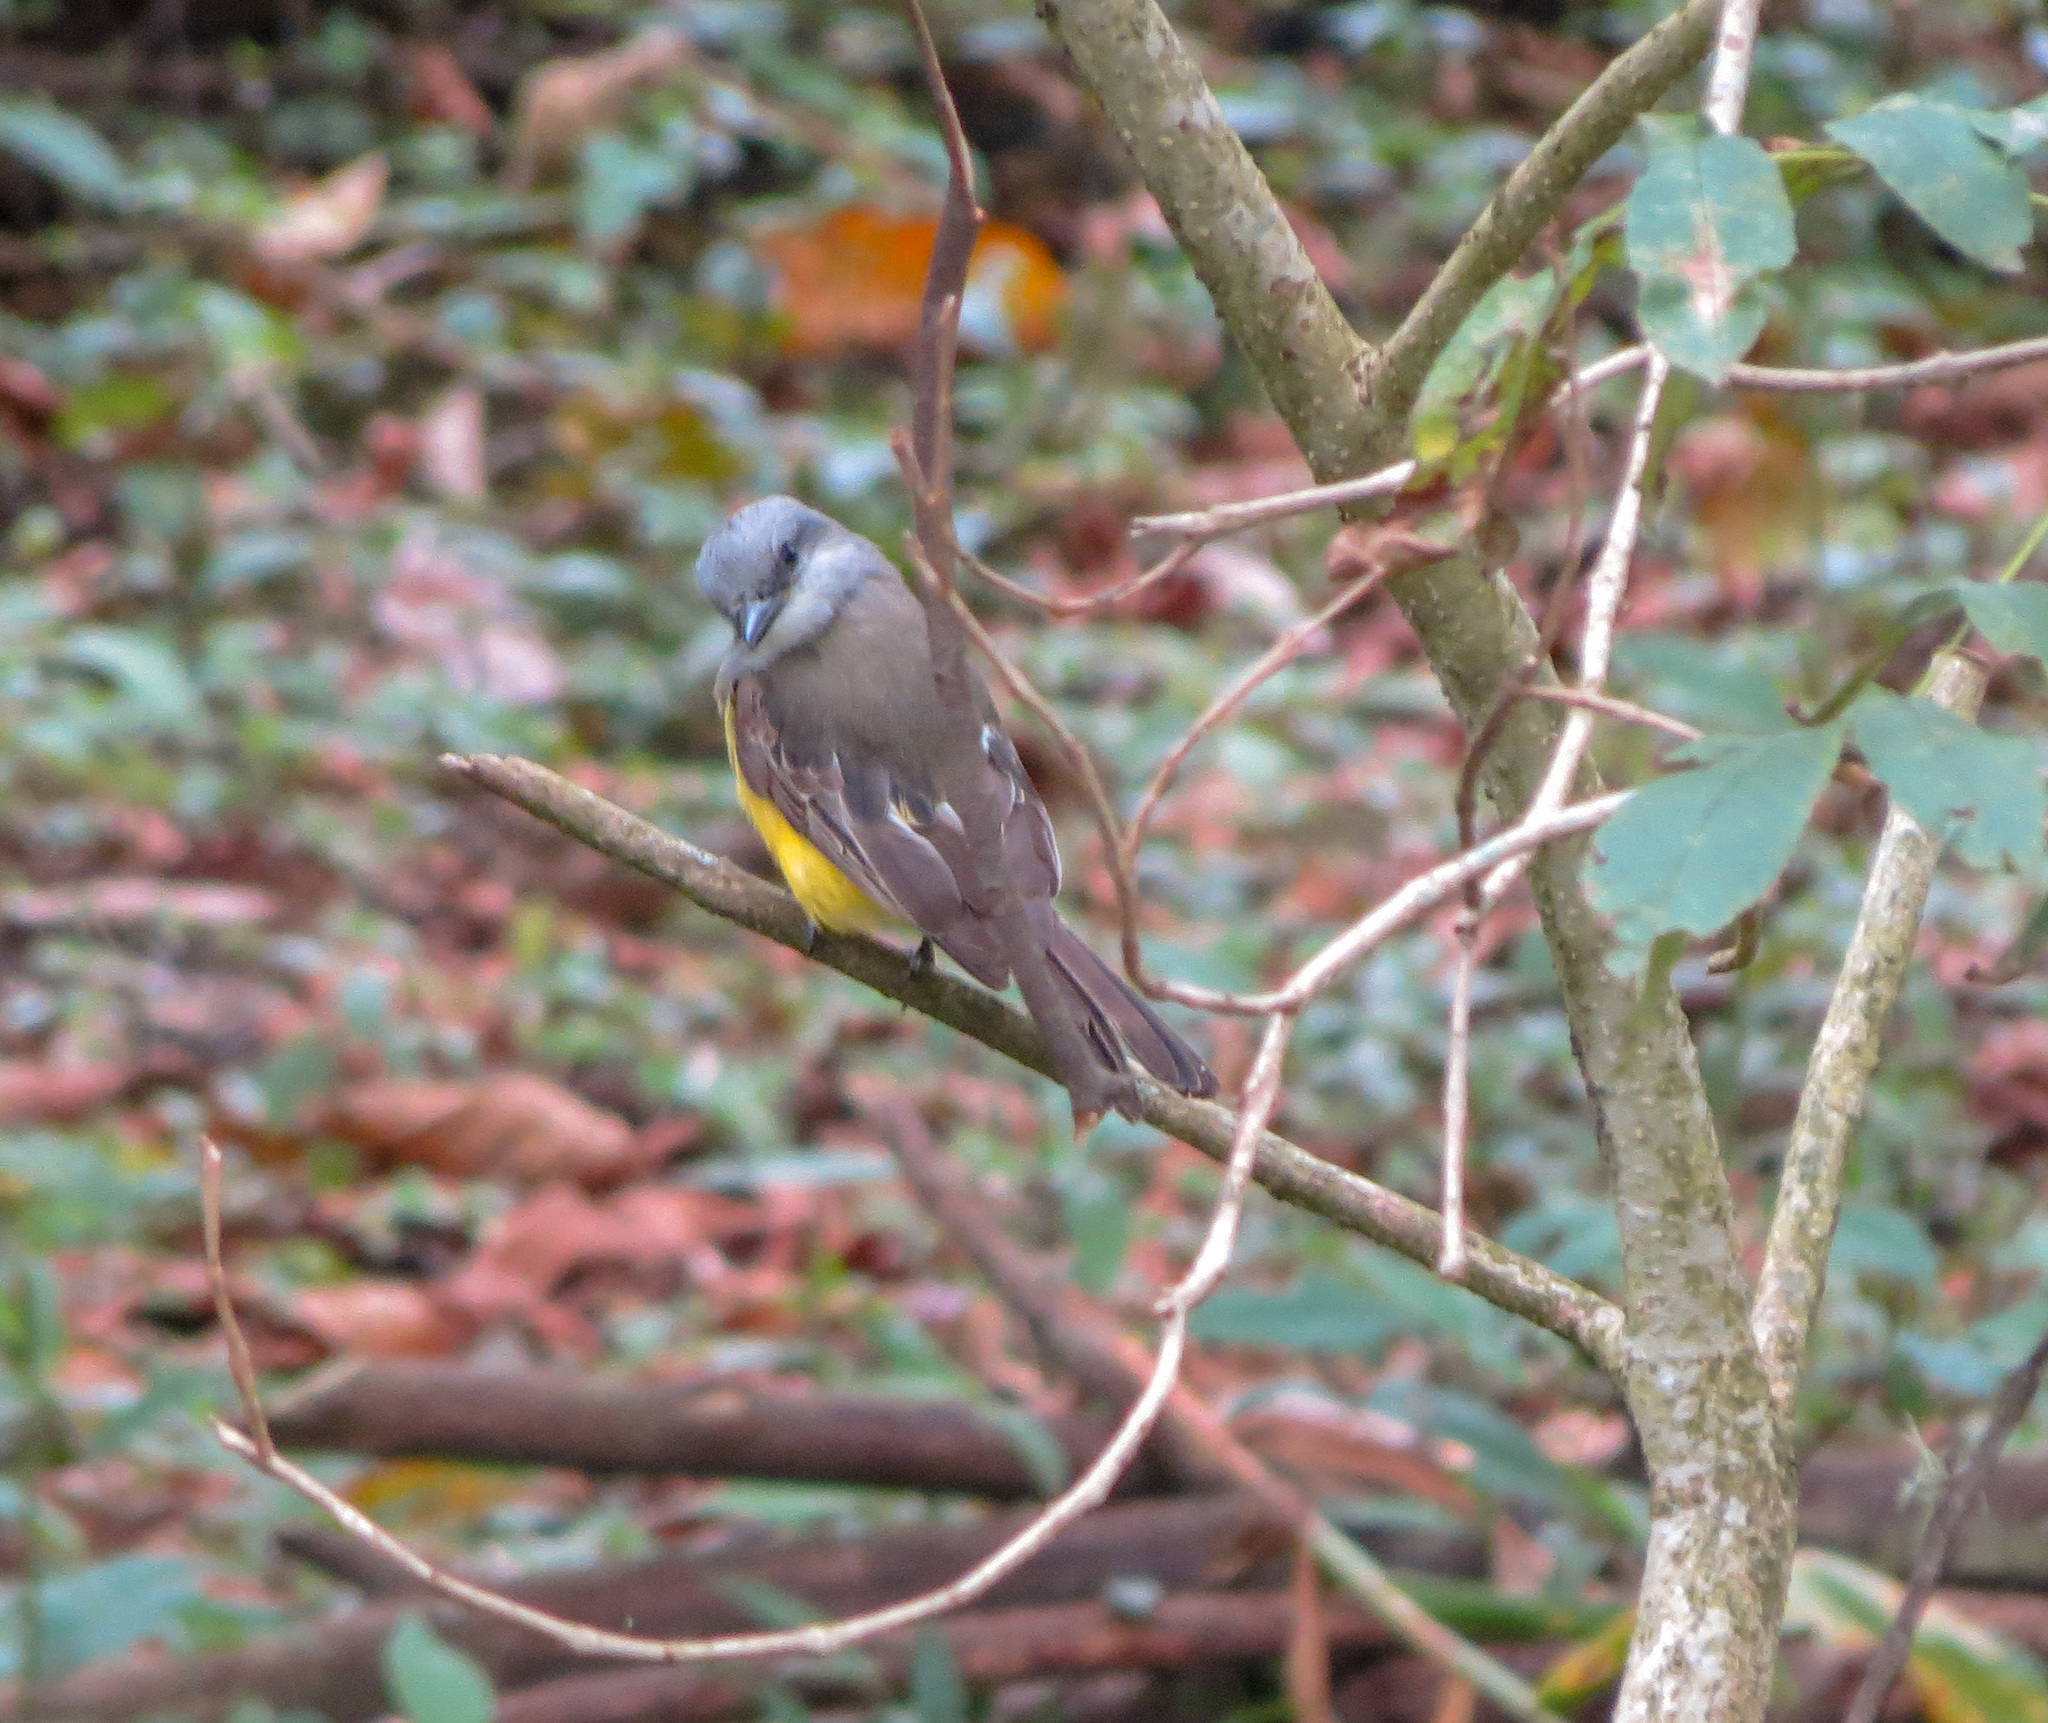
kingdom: Animalia
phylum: Chordata
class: Aves
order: Passeriformes
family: Tyrannidae
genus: Tyrannus
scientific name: Tyrannus melancholicus
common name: Tropical kingbird
